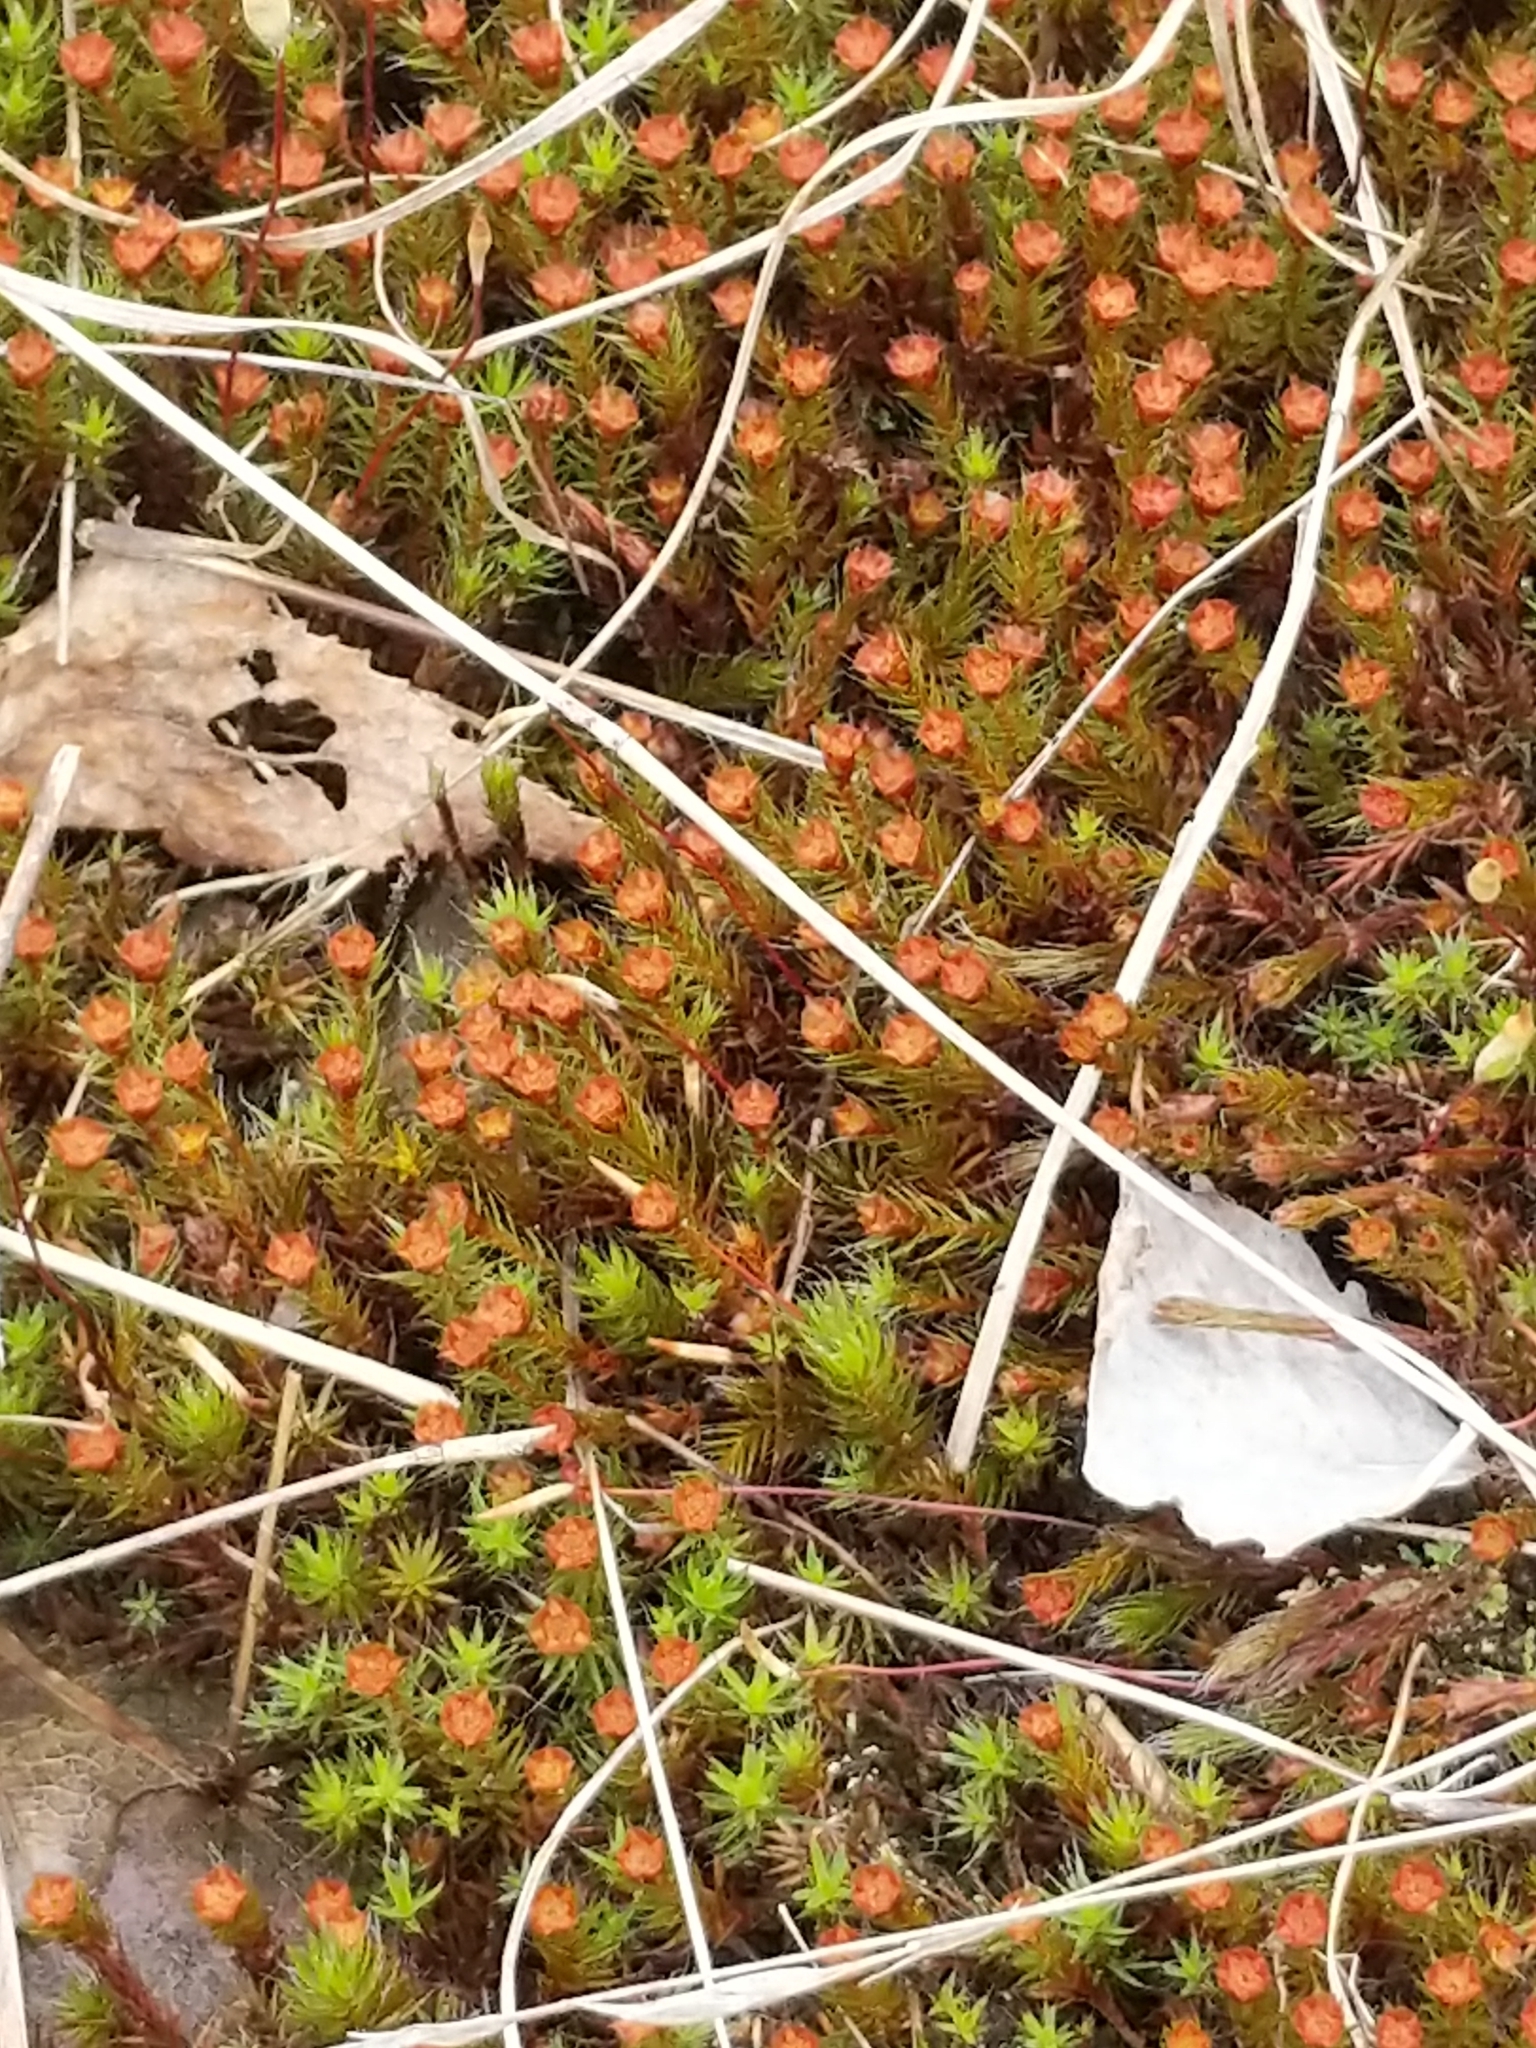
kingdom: Plantae
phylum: Bryophyta
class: Polytrichopsida
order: Polytrichales
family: Polytrichaceae
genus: Polytrichum
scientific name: Polytrichum piliferum
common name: Bristly haircap
